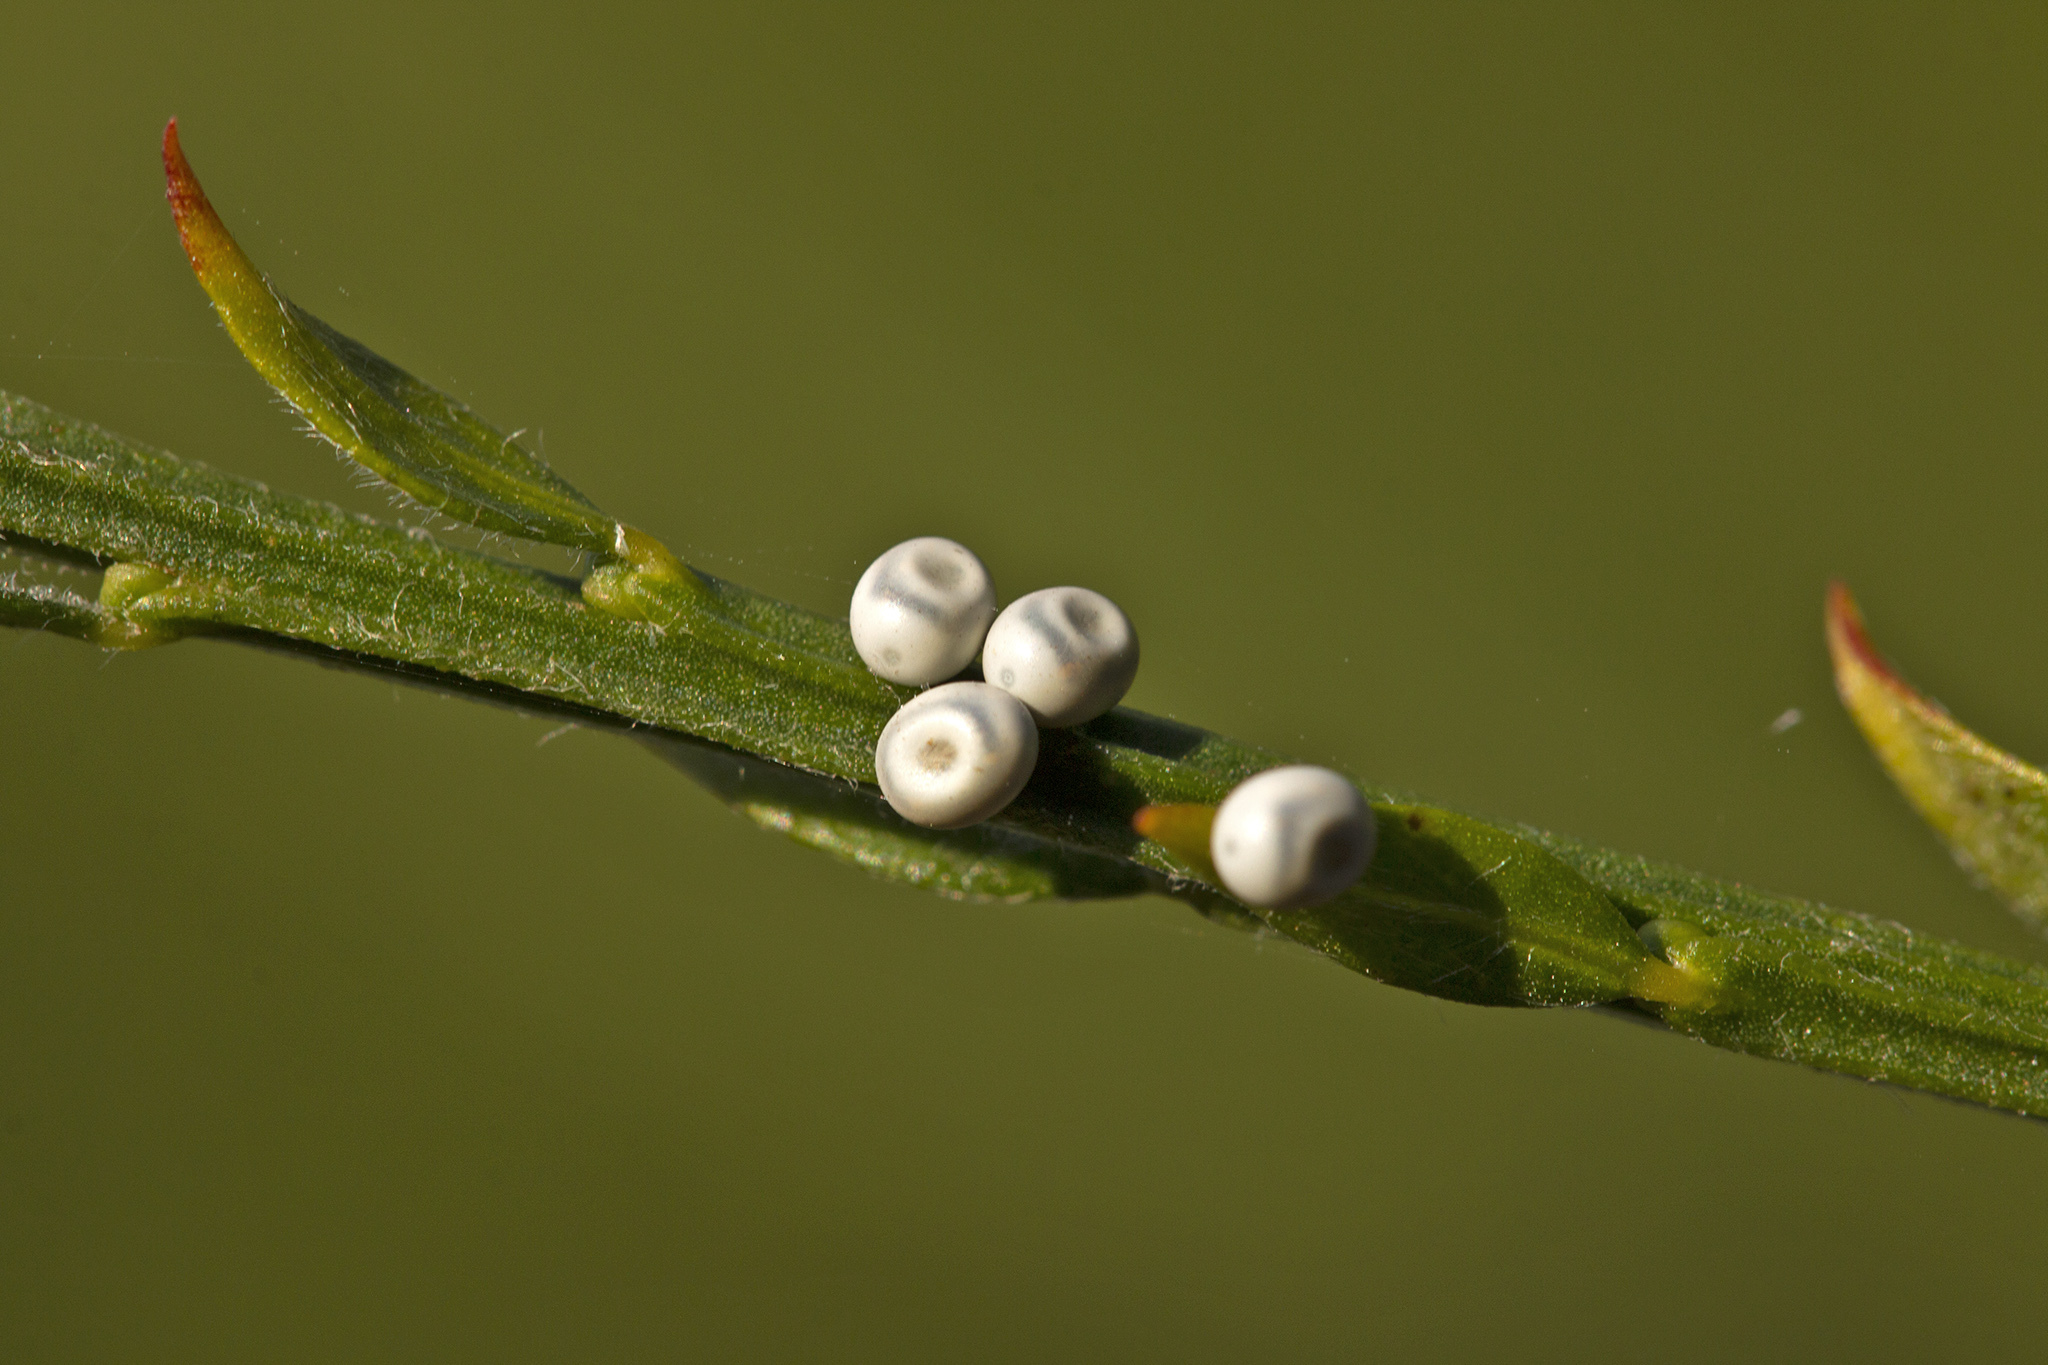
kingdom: Animalia
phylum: Arthropoda
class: Insecta
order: Lepidoptera
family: Lasiocampidae
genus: Euthrix
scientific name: Euthrix potatoria
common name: Drinker
